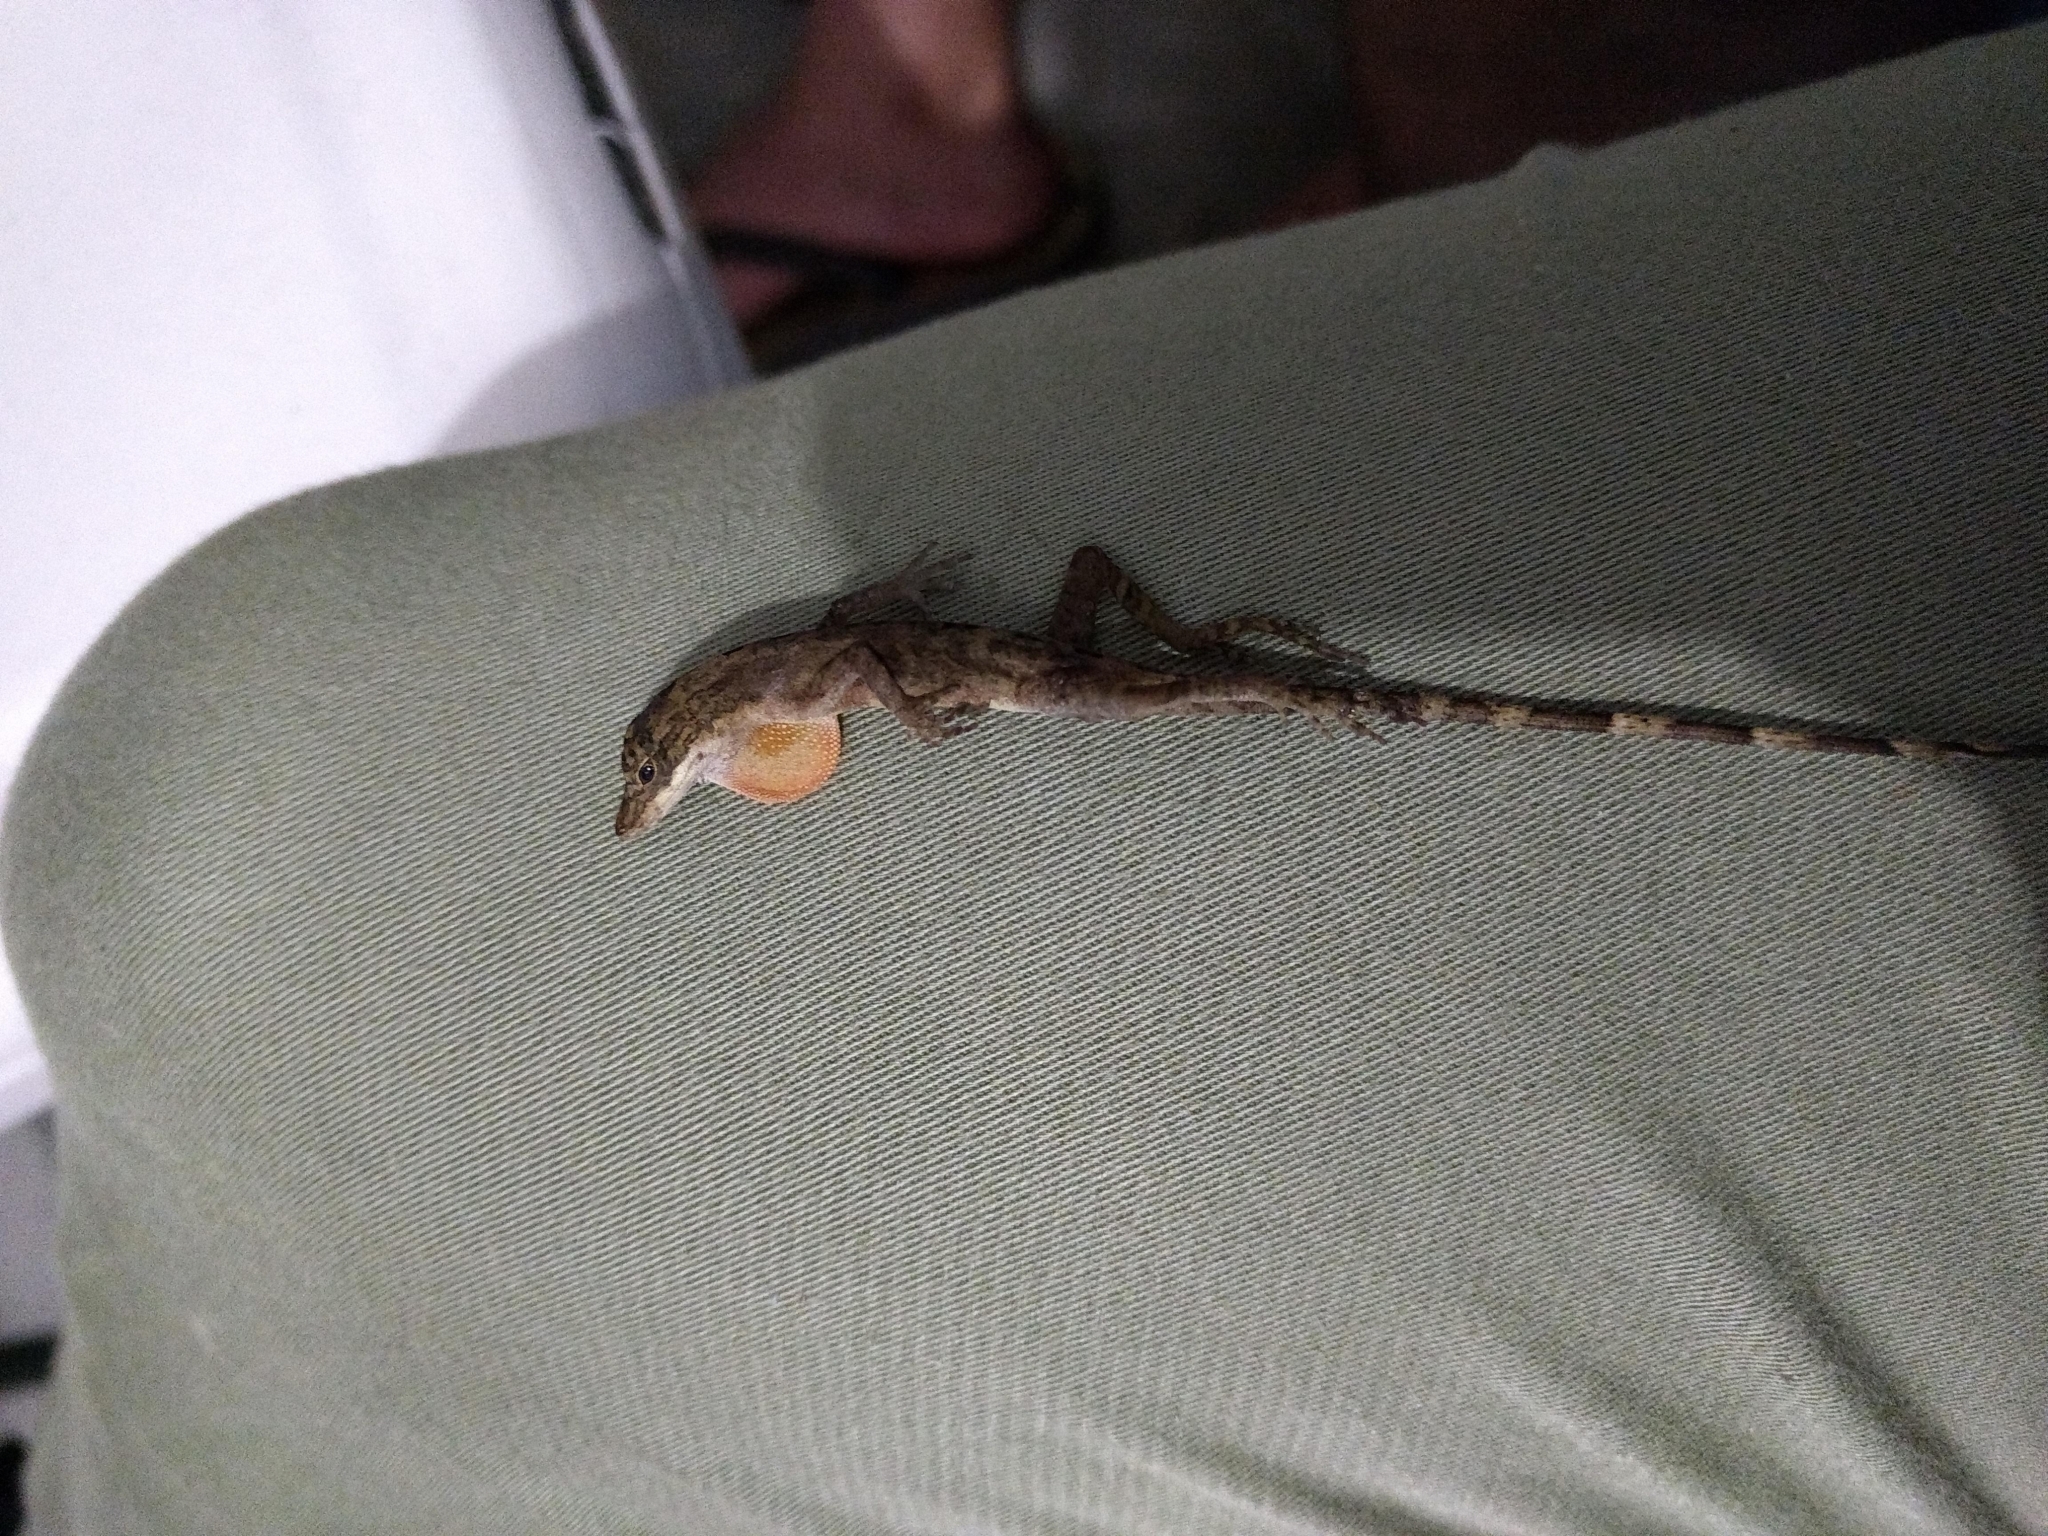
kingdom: Animalia
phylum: Chordata
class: Squamata
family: Dactyloidae
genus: Anolis
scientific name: Anolis rodriguezii
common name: Middle american smooth anole
